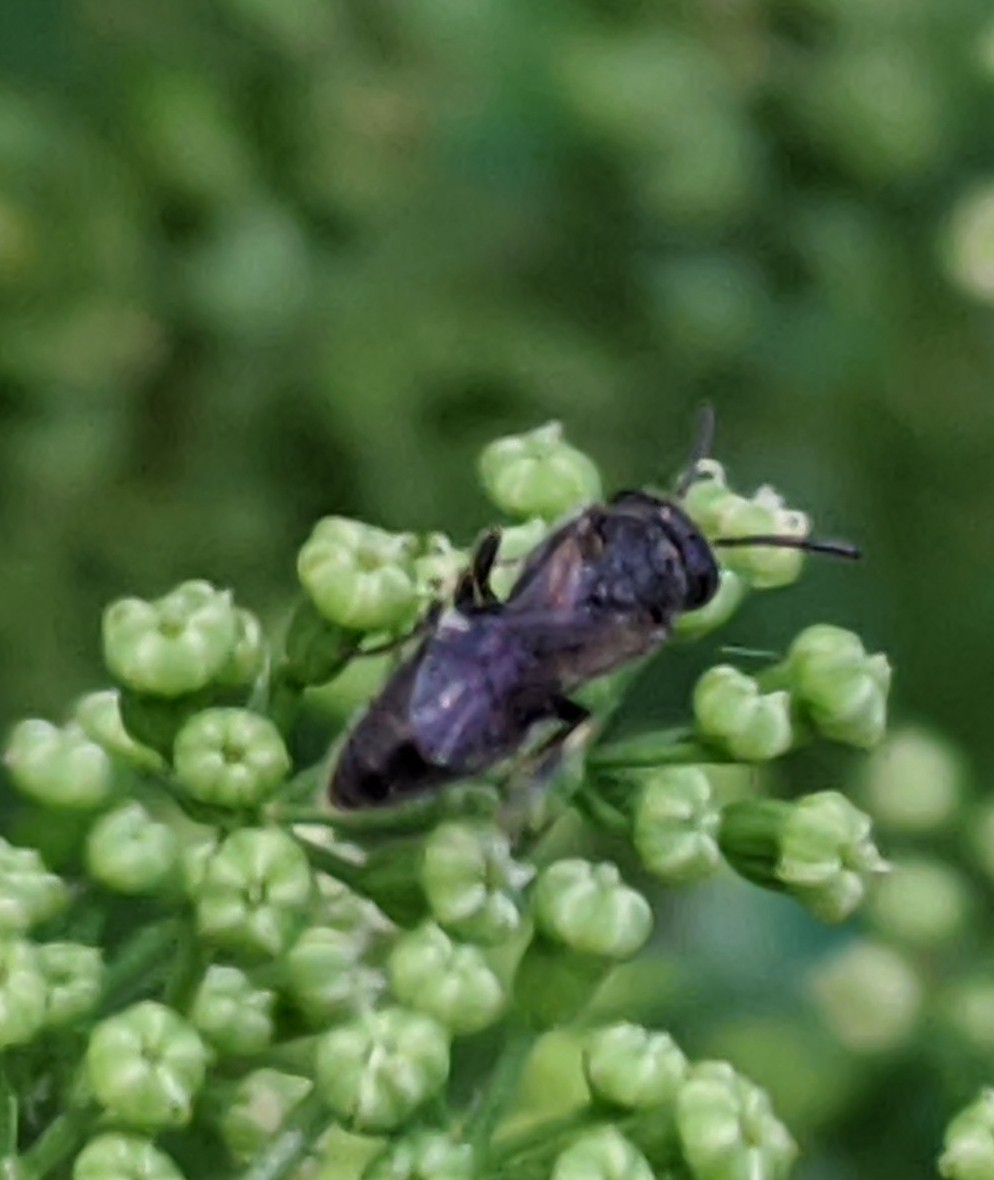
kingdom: Animalia
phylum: Arthropoda
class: Insecta
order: Hymenoptera
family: Colletidae
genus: Hylaeus
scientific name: Hylaeus
